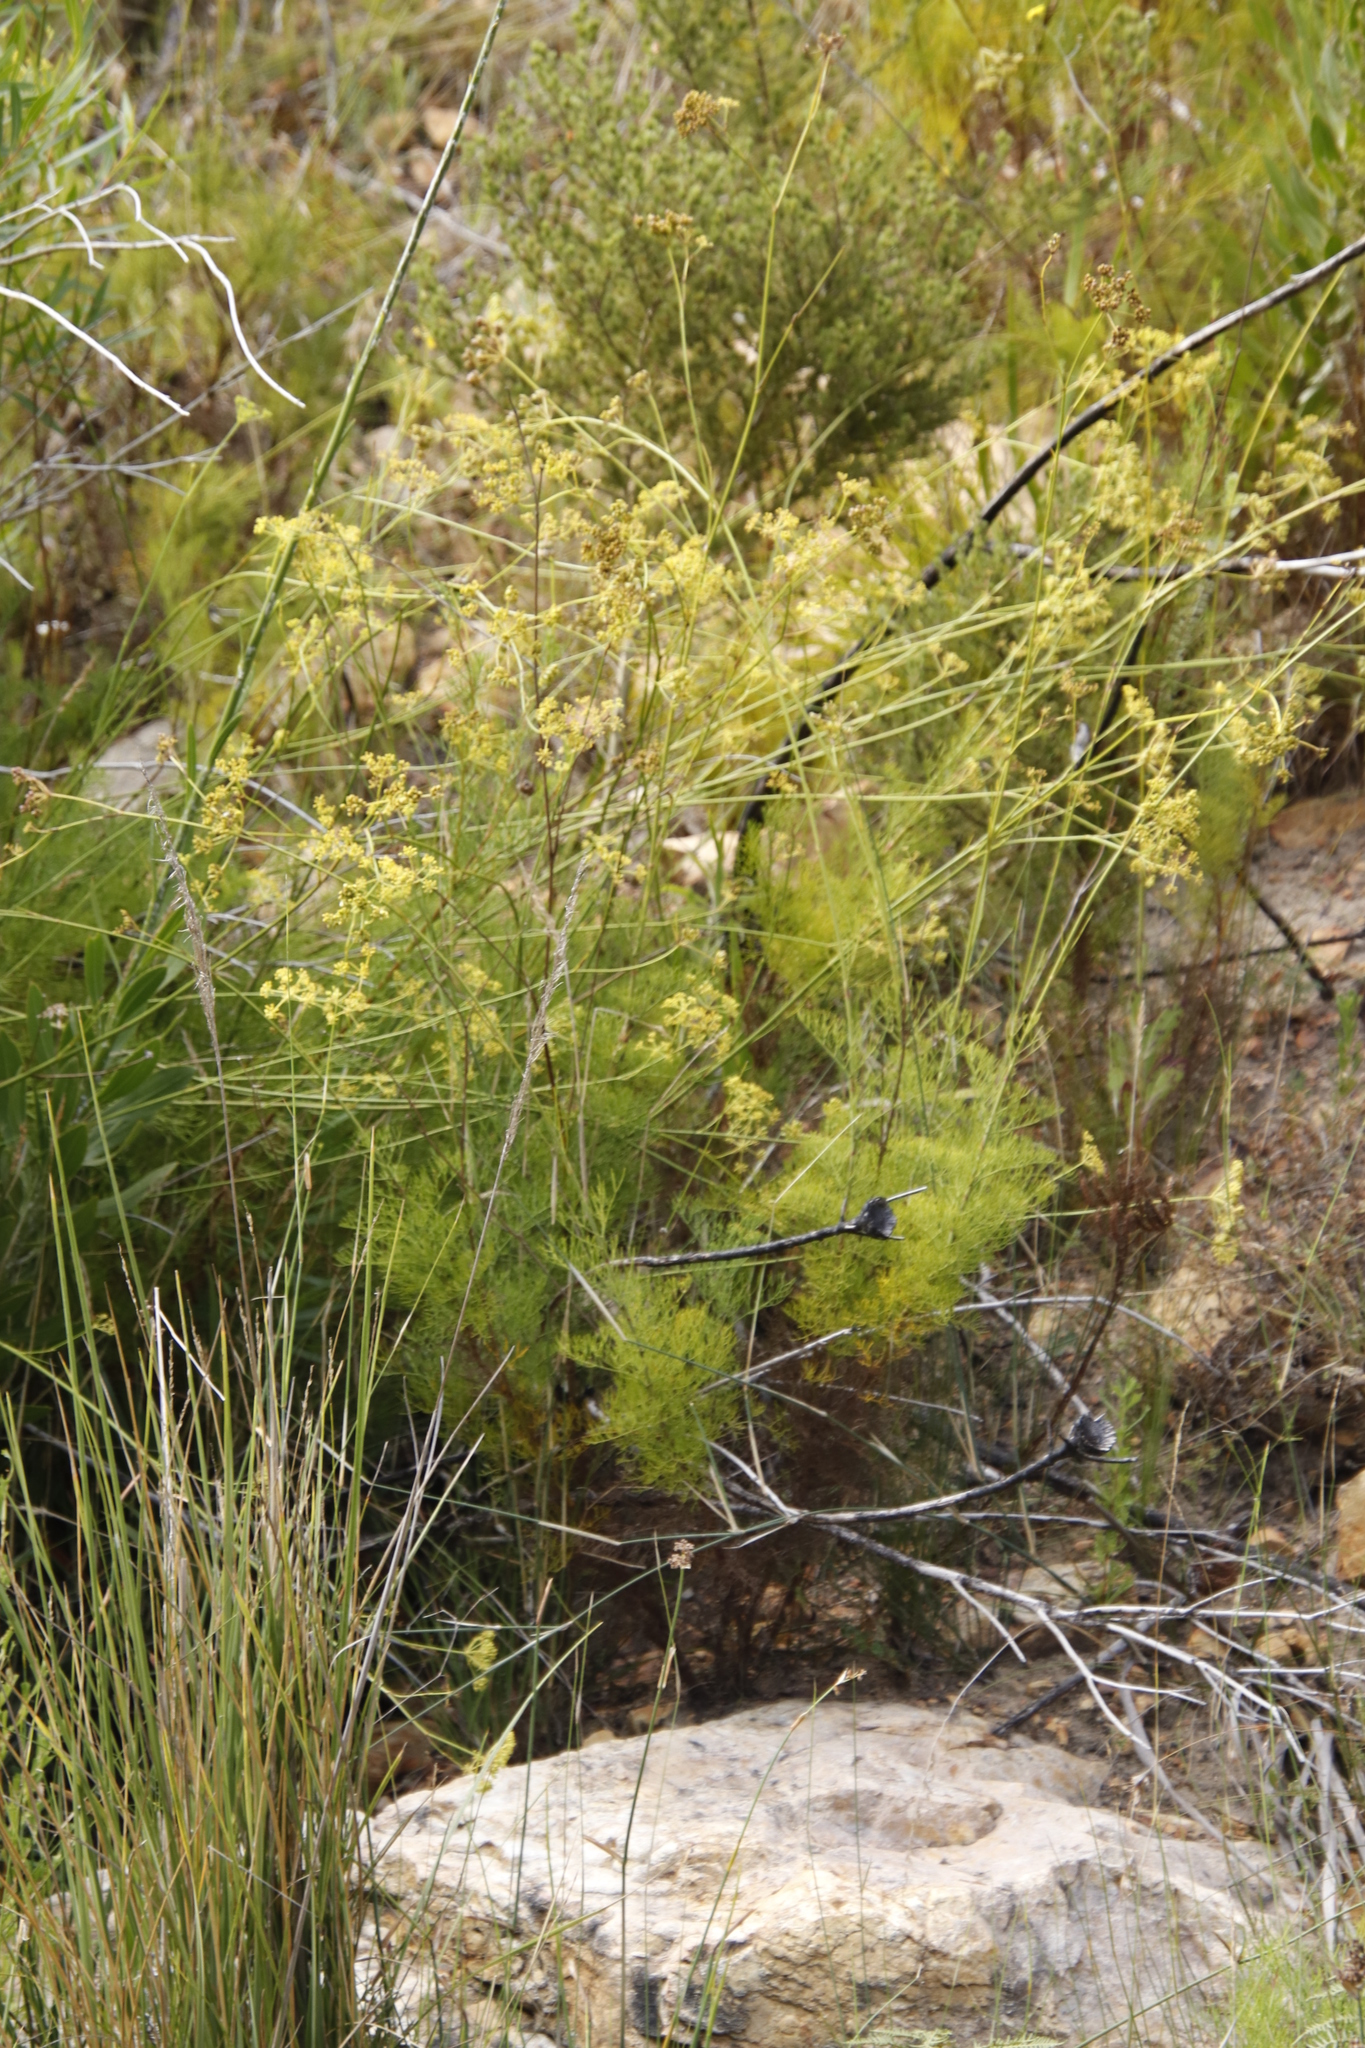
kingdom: Plantae
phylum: Tracheophyta
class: Magnoliopsida
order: Apiales
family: Apiaceae
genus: Notobubon
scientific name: Notobubon ferulaceum
